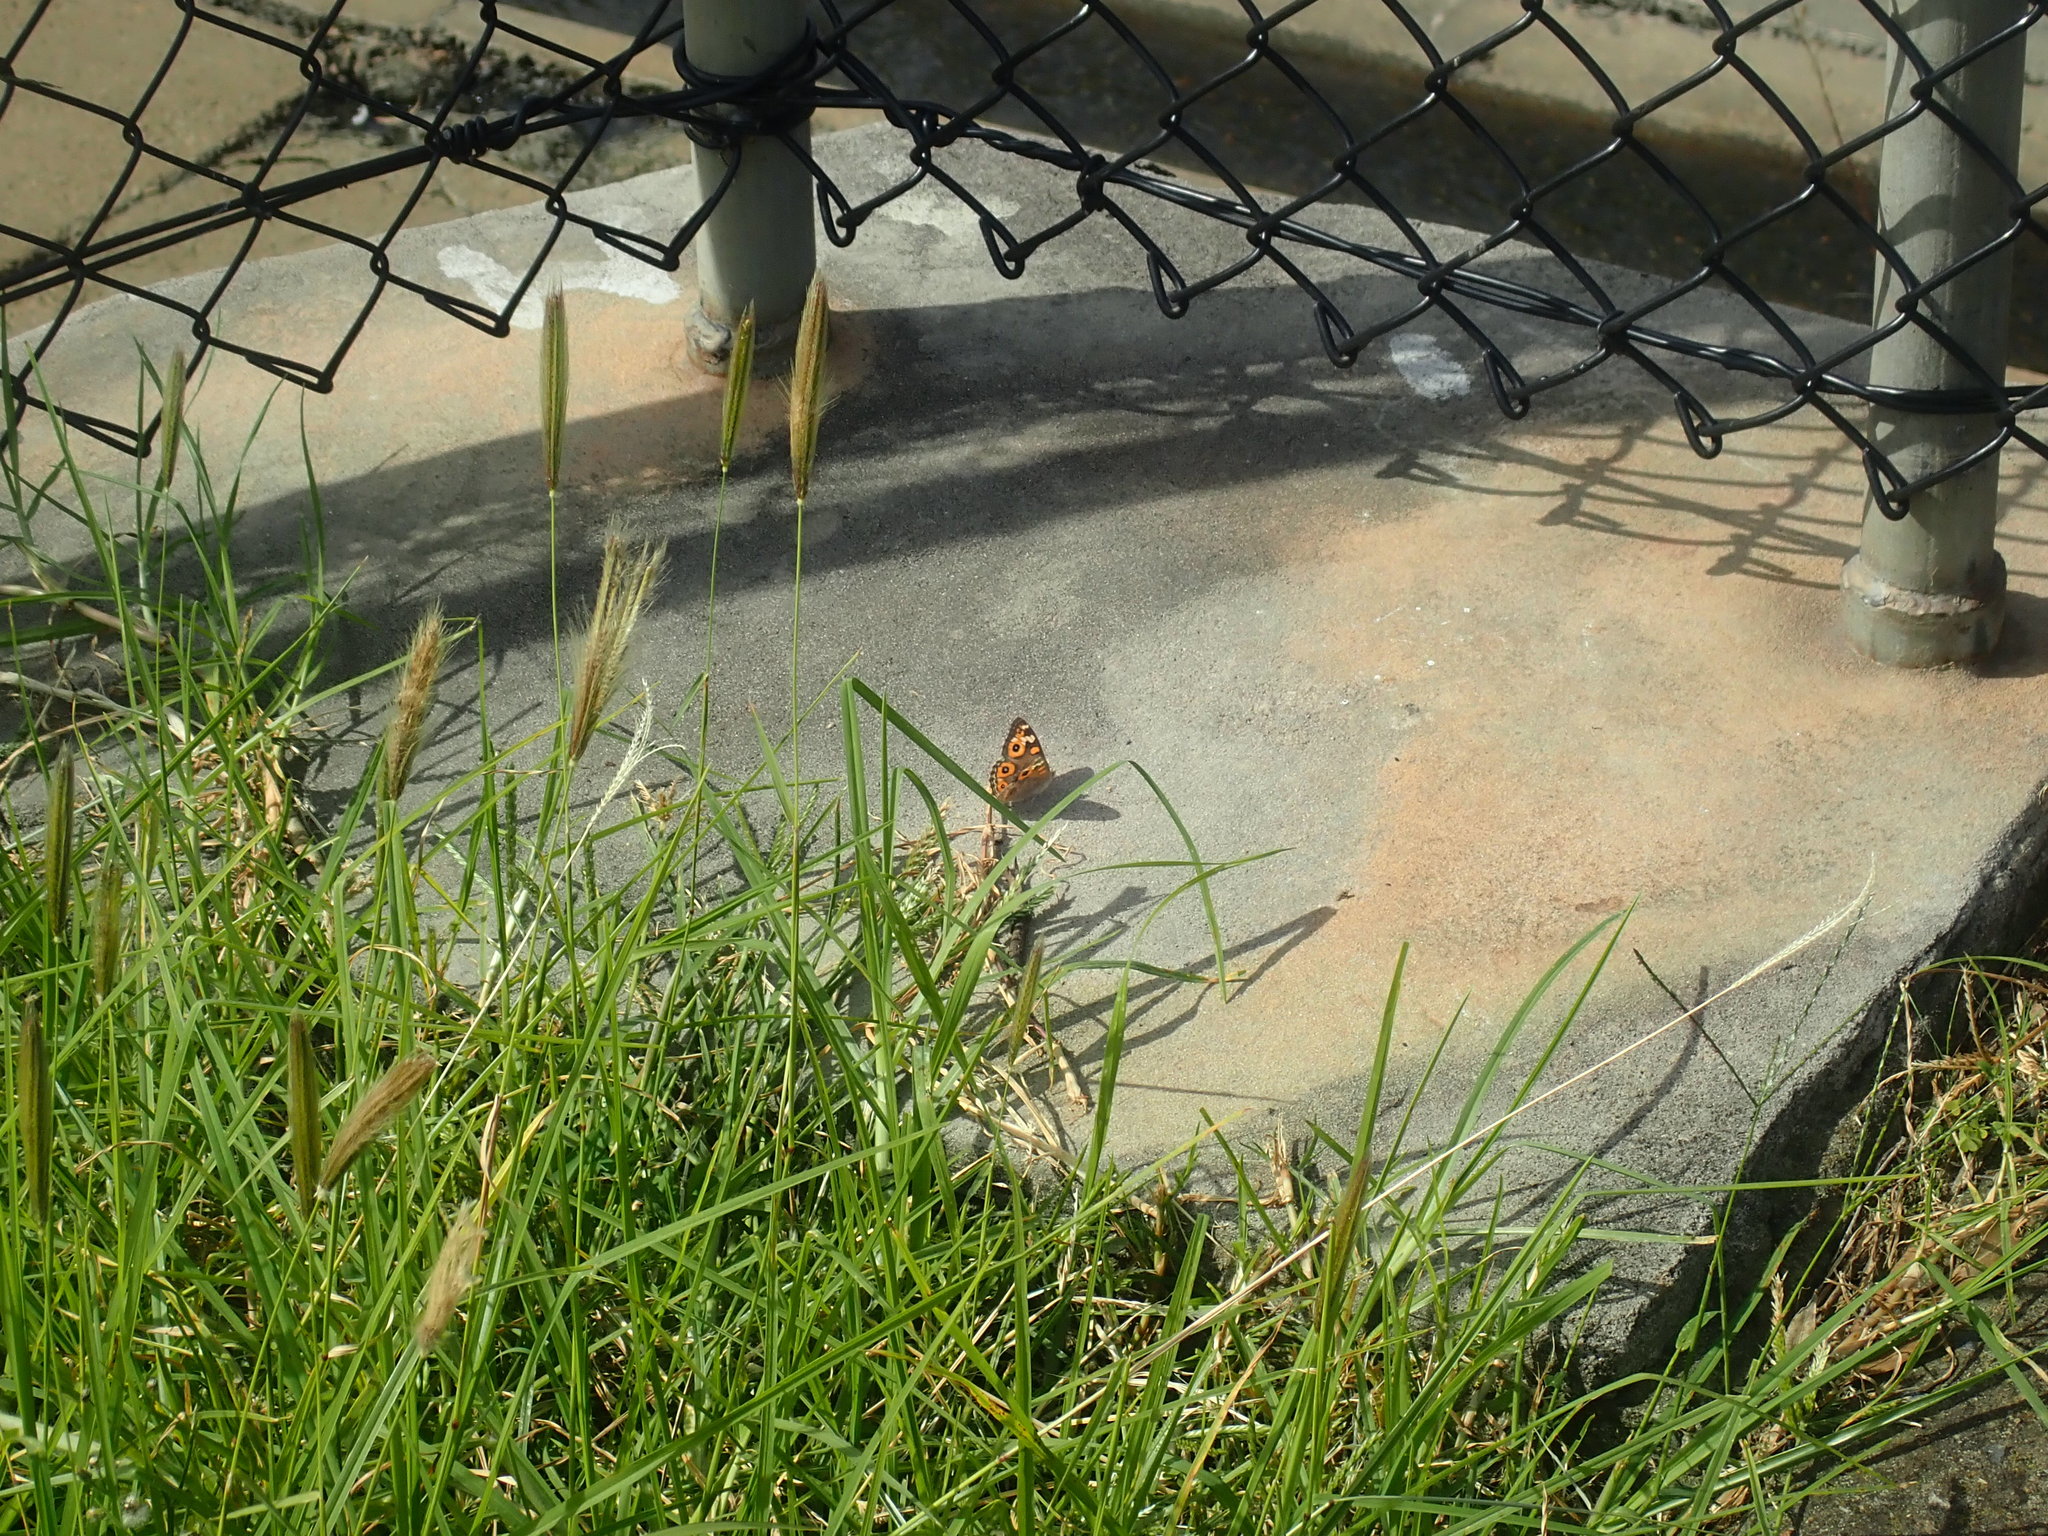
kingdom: Animalia
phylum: Arthropoda
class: Insecta
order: Lepidoptera
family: Nymphalidae
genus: Junonia
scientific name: Junonia villida
